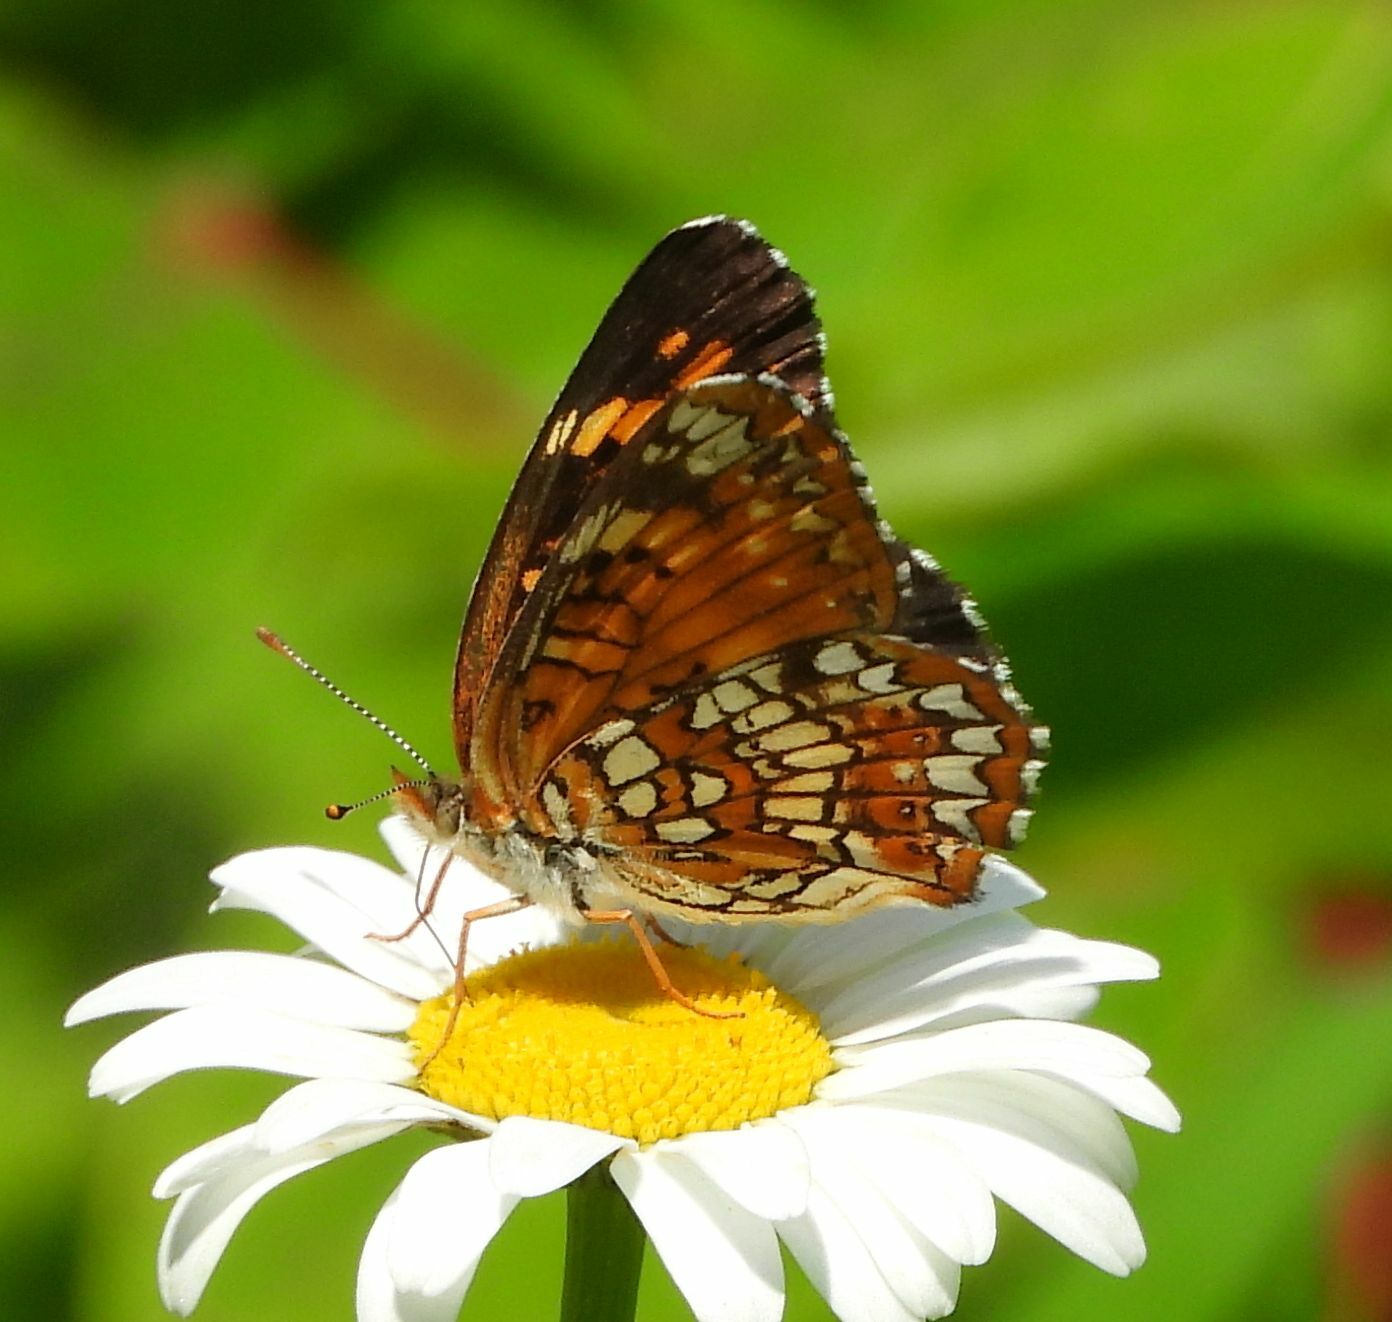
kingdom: Animalia
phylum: Arthropoda
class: Insecta
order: Lepidoptera
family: Nymphalidae
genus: Chlosyne
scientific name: Chlosyne harrisii
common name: Harris's checkerspot
